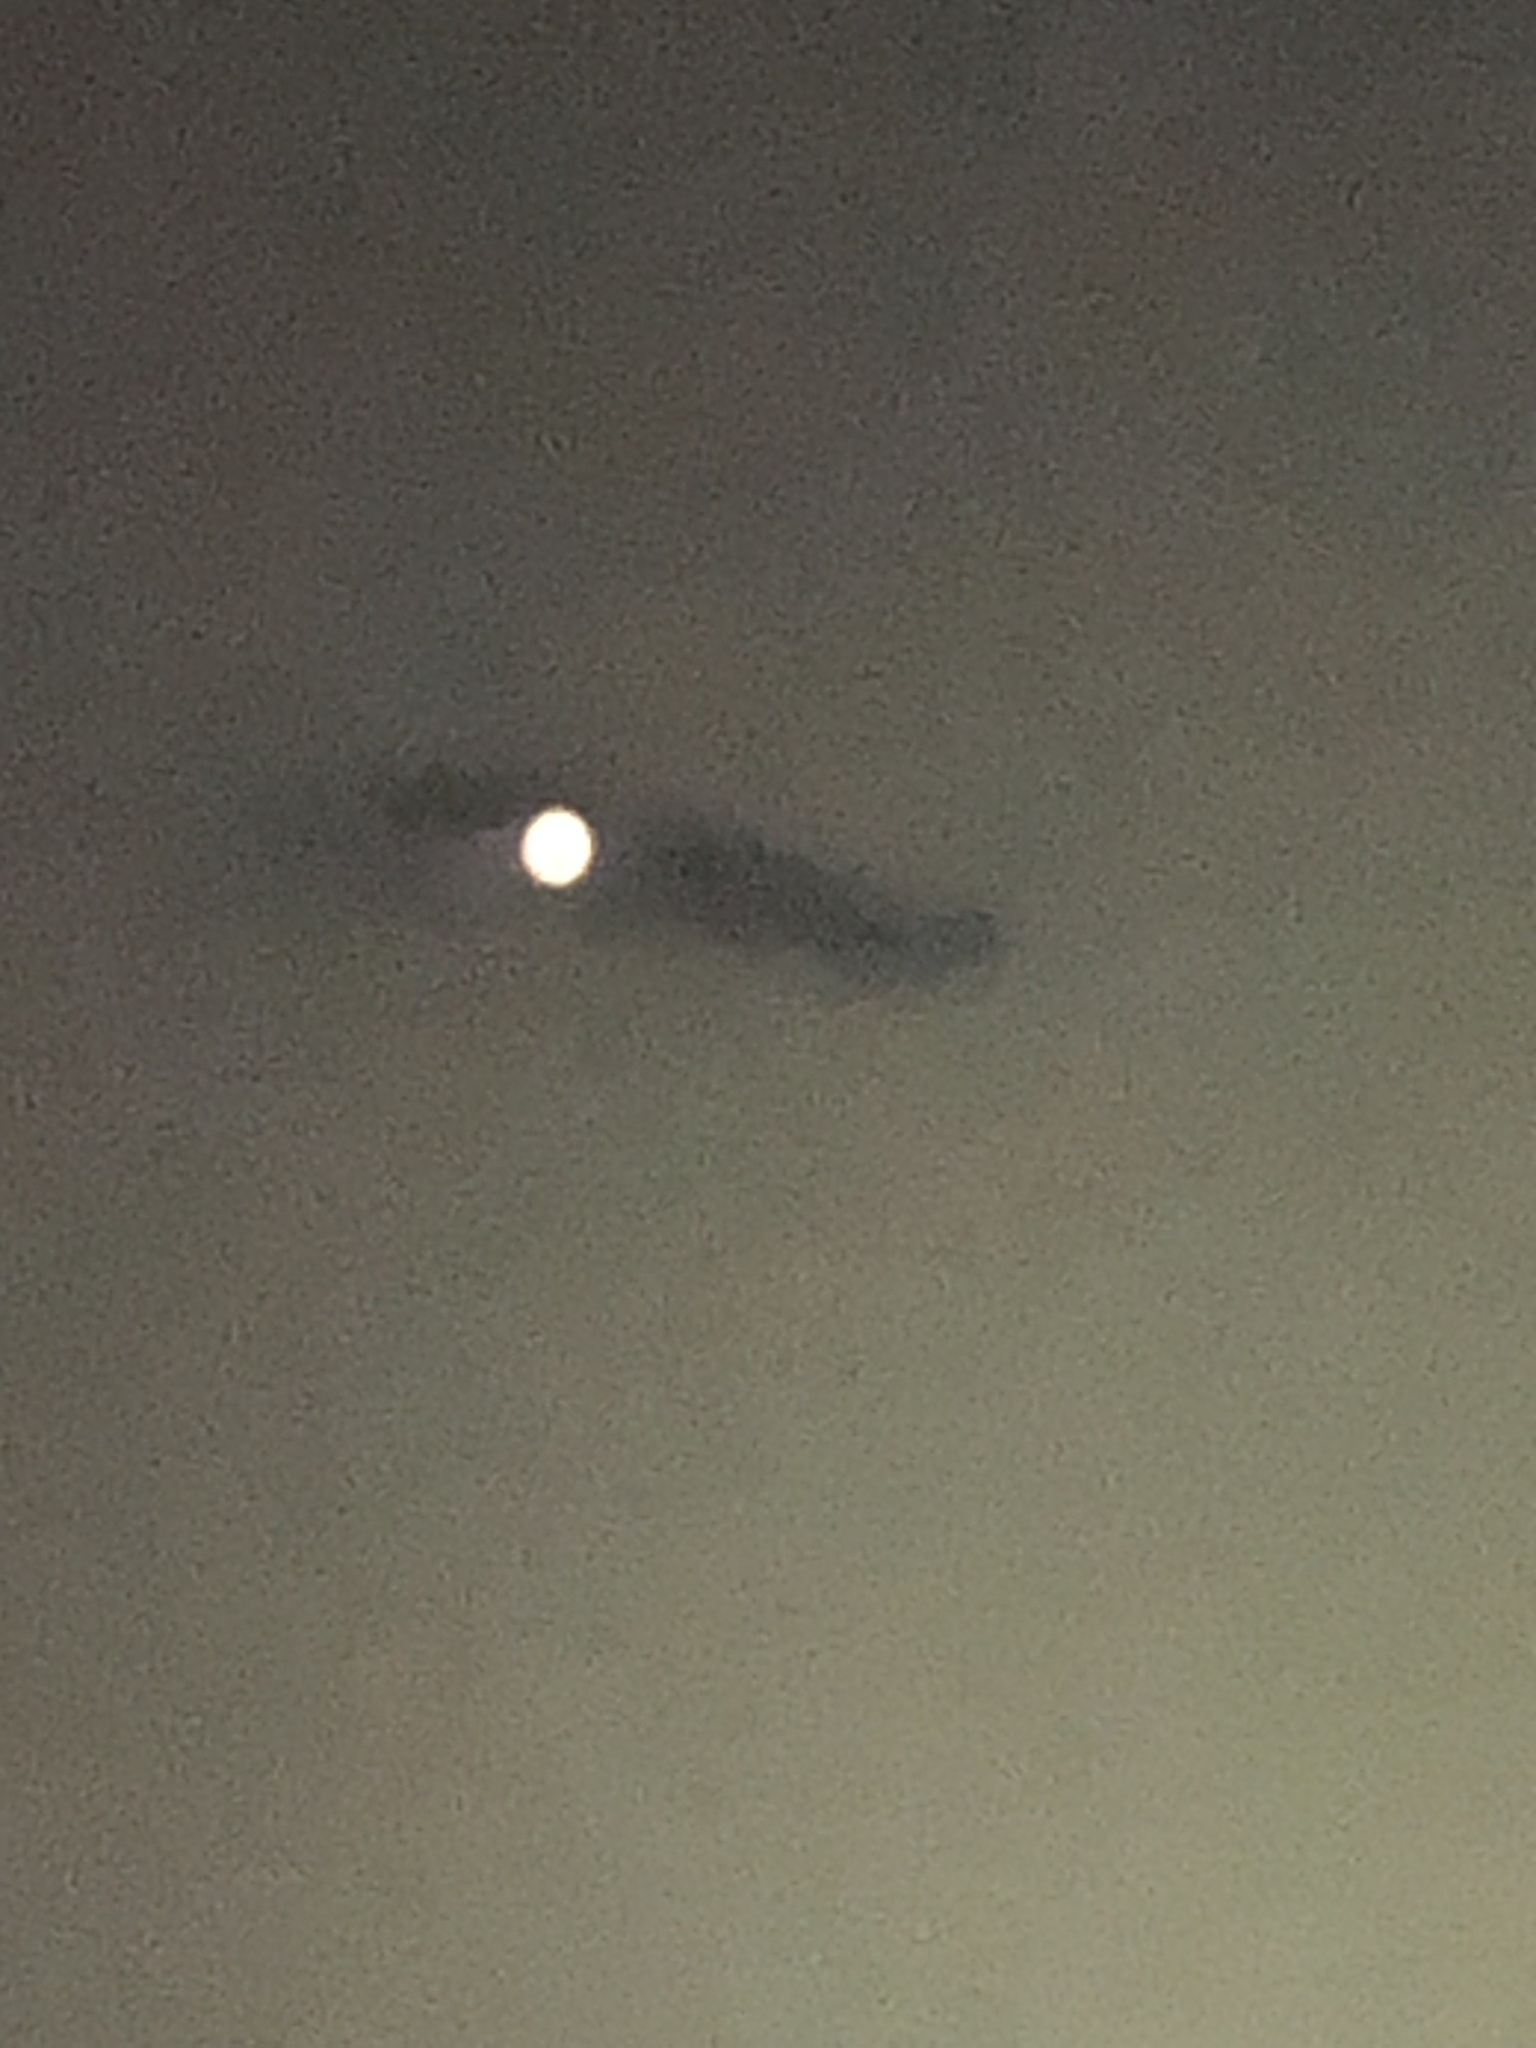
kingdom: Animalia
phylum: Chordata
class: Crocodylia
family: Alligatoridae
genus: Alligator
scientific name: Alligator mississippiensis
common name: American alligator
